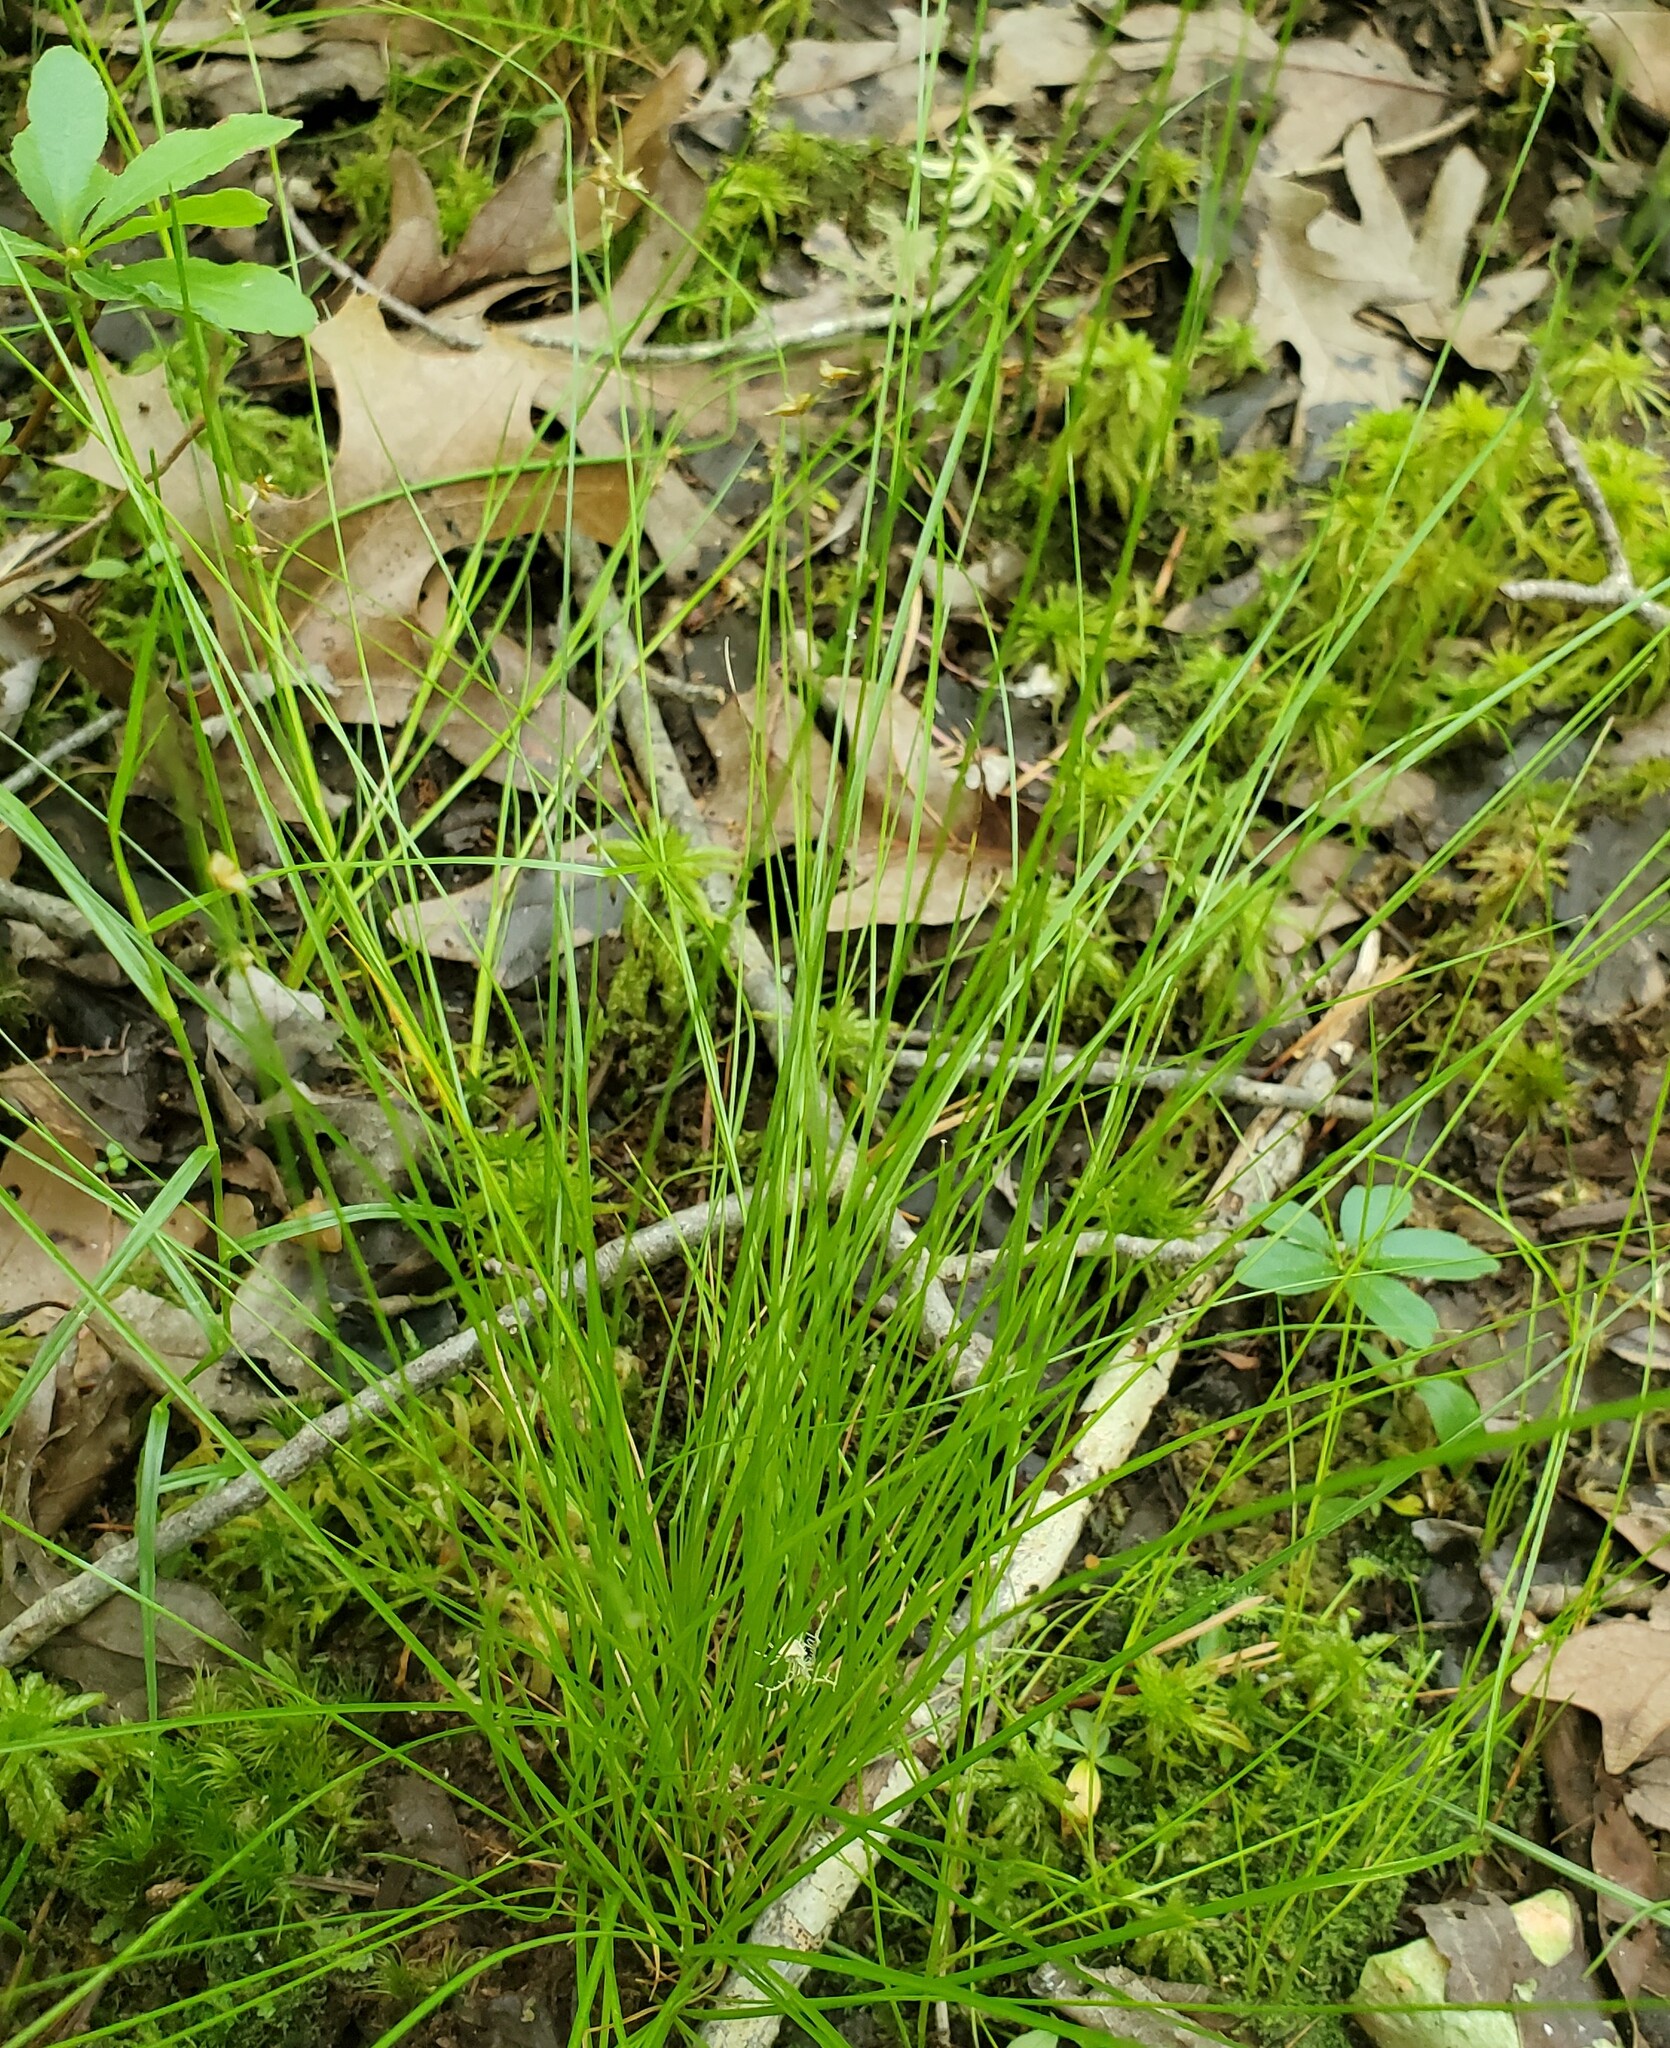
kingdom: Plantae
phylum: Tracheophyta
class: Liliopsida
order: Poales
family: Cyperaceae
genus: Carex
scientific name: Carex atlantica
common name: Atlantic sedge
